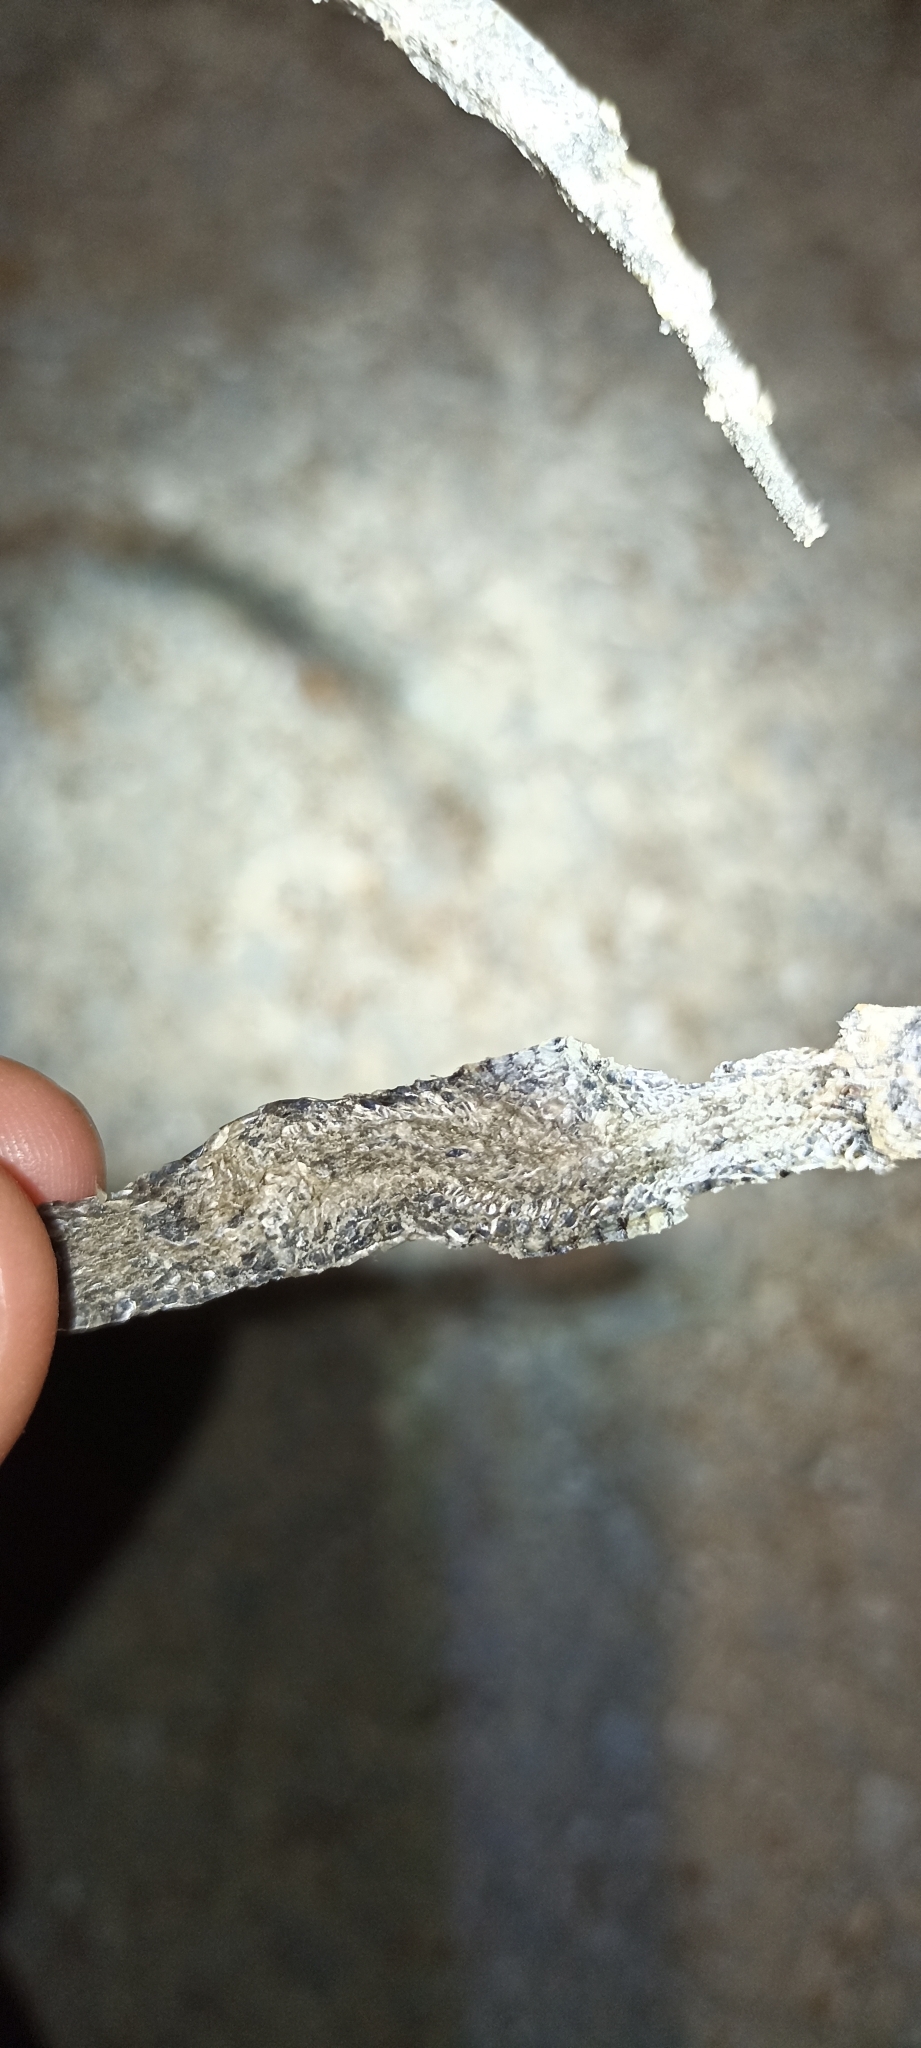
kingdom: Animalia
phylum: Chordata
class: Squamata
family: Colubridae
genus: Natrix
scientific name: Natrix helvetica
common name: Banded grass snake
